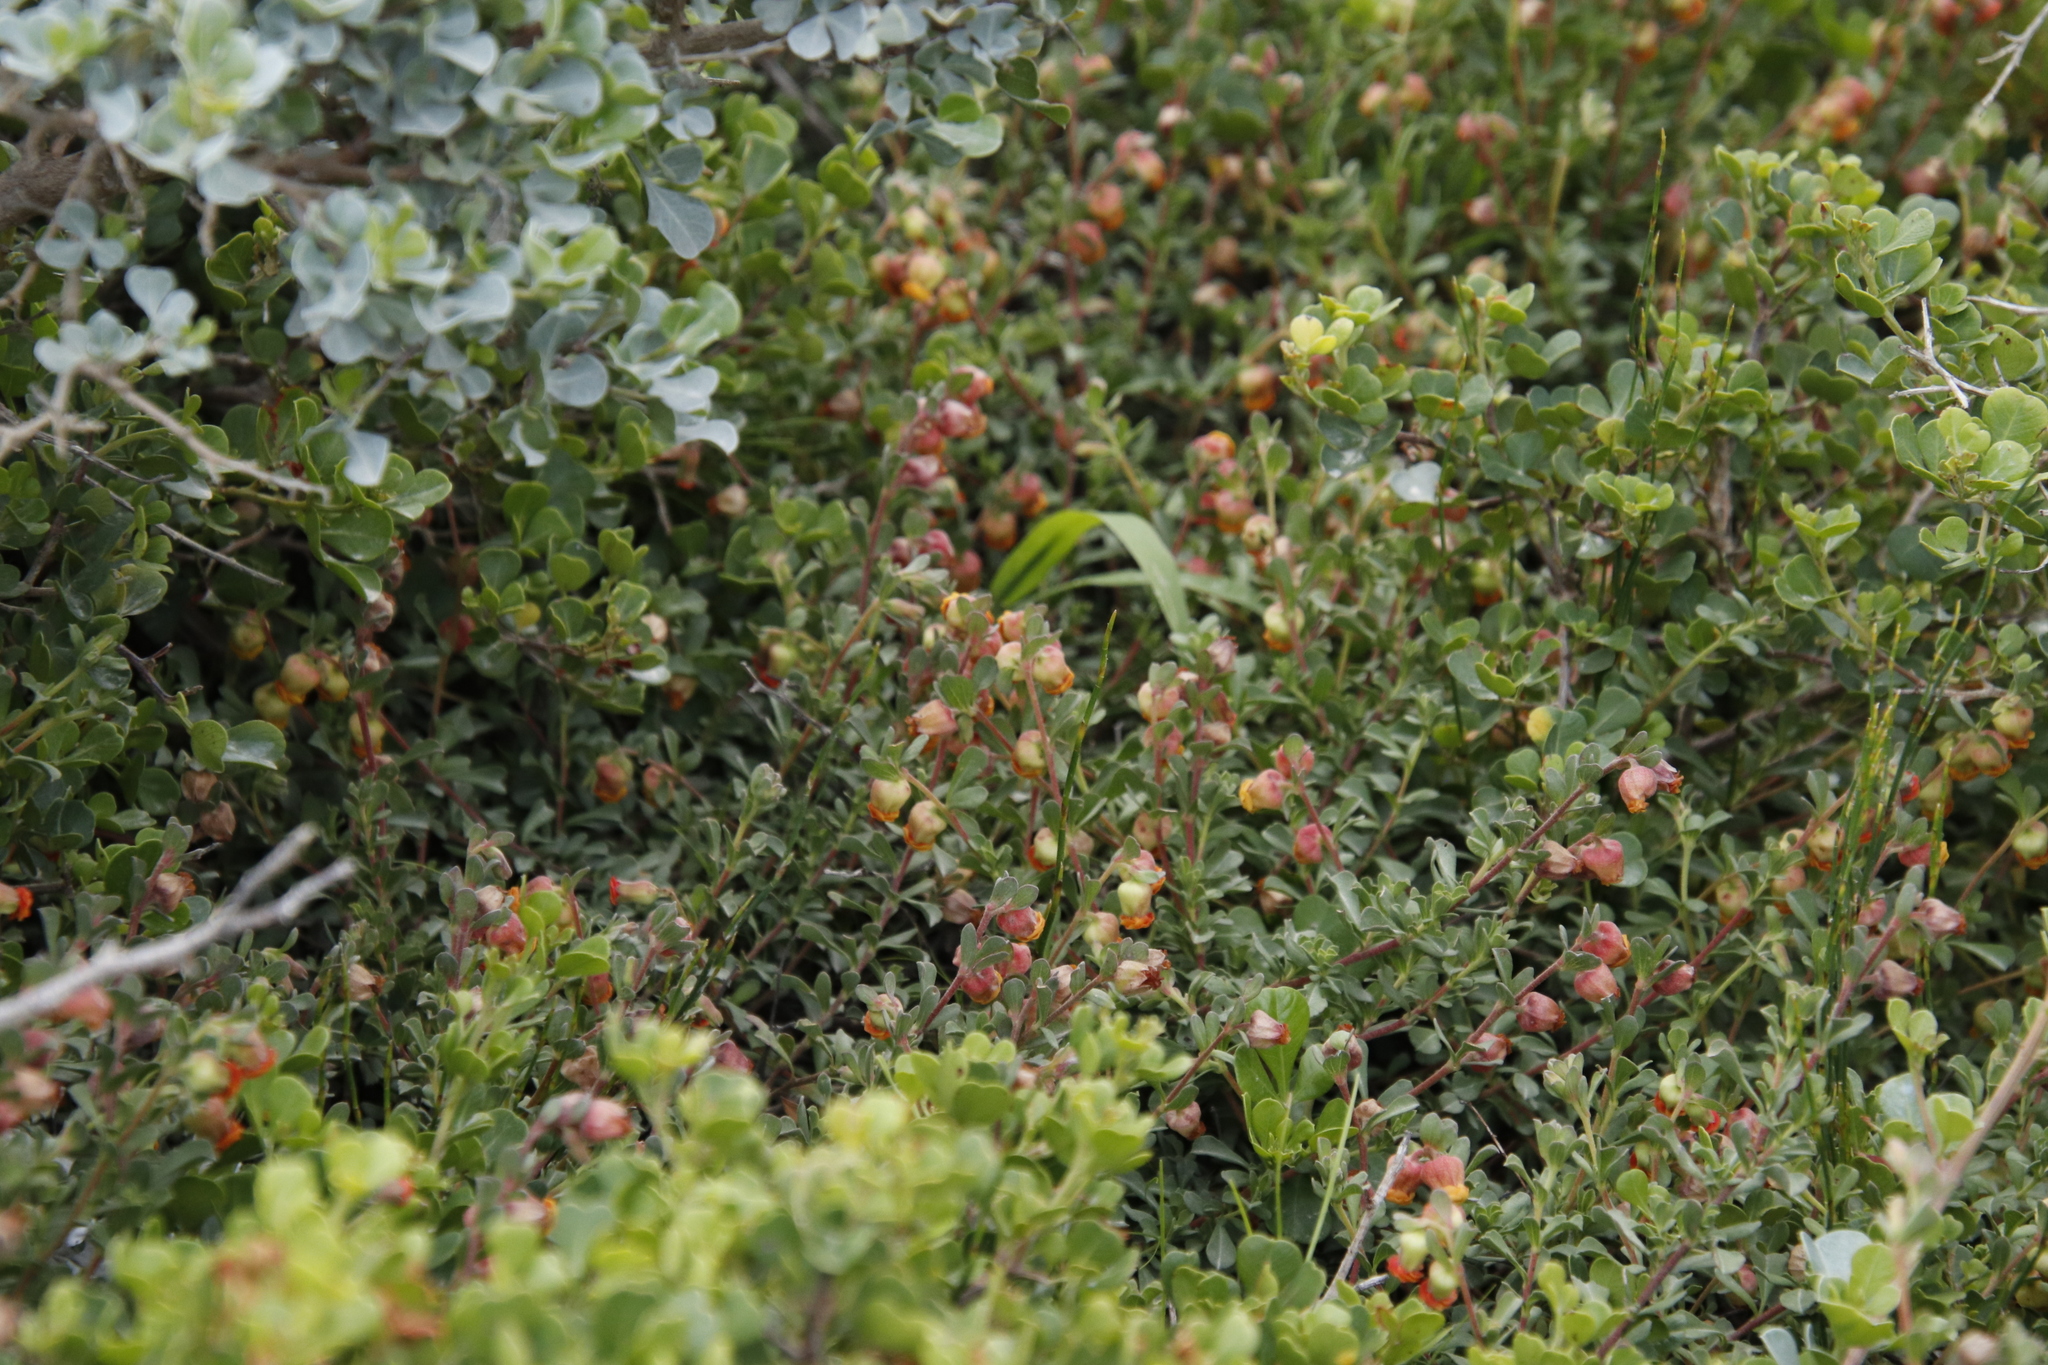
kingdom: Plantae
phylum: Tracheophyta
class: Magnoliopsida
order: Malvales
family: Malvaceae
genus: Hermannia
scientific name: Hermannia ternifolia
